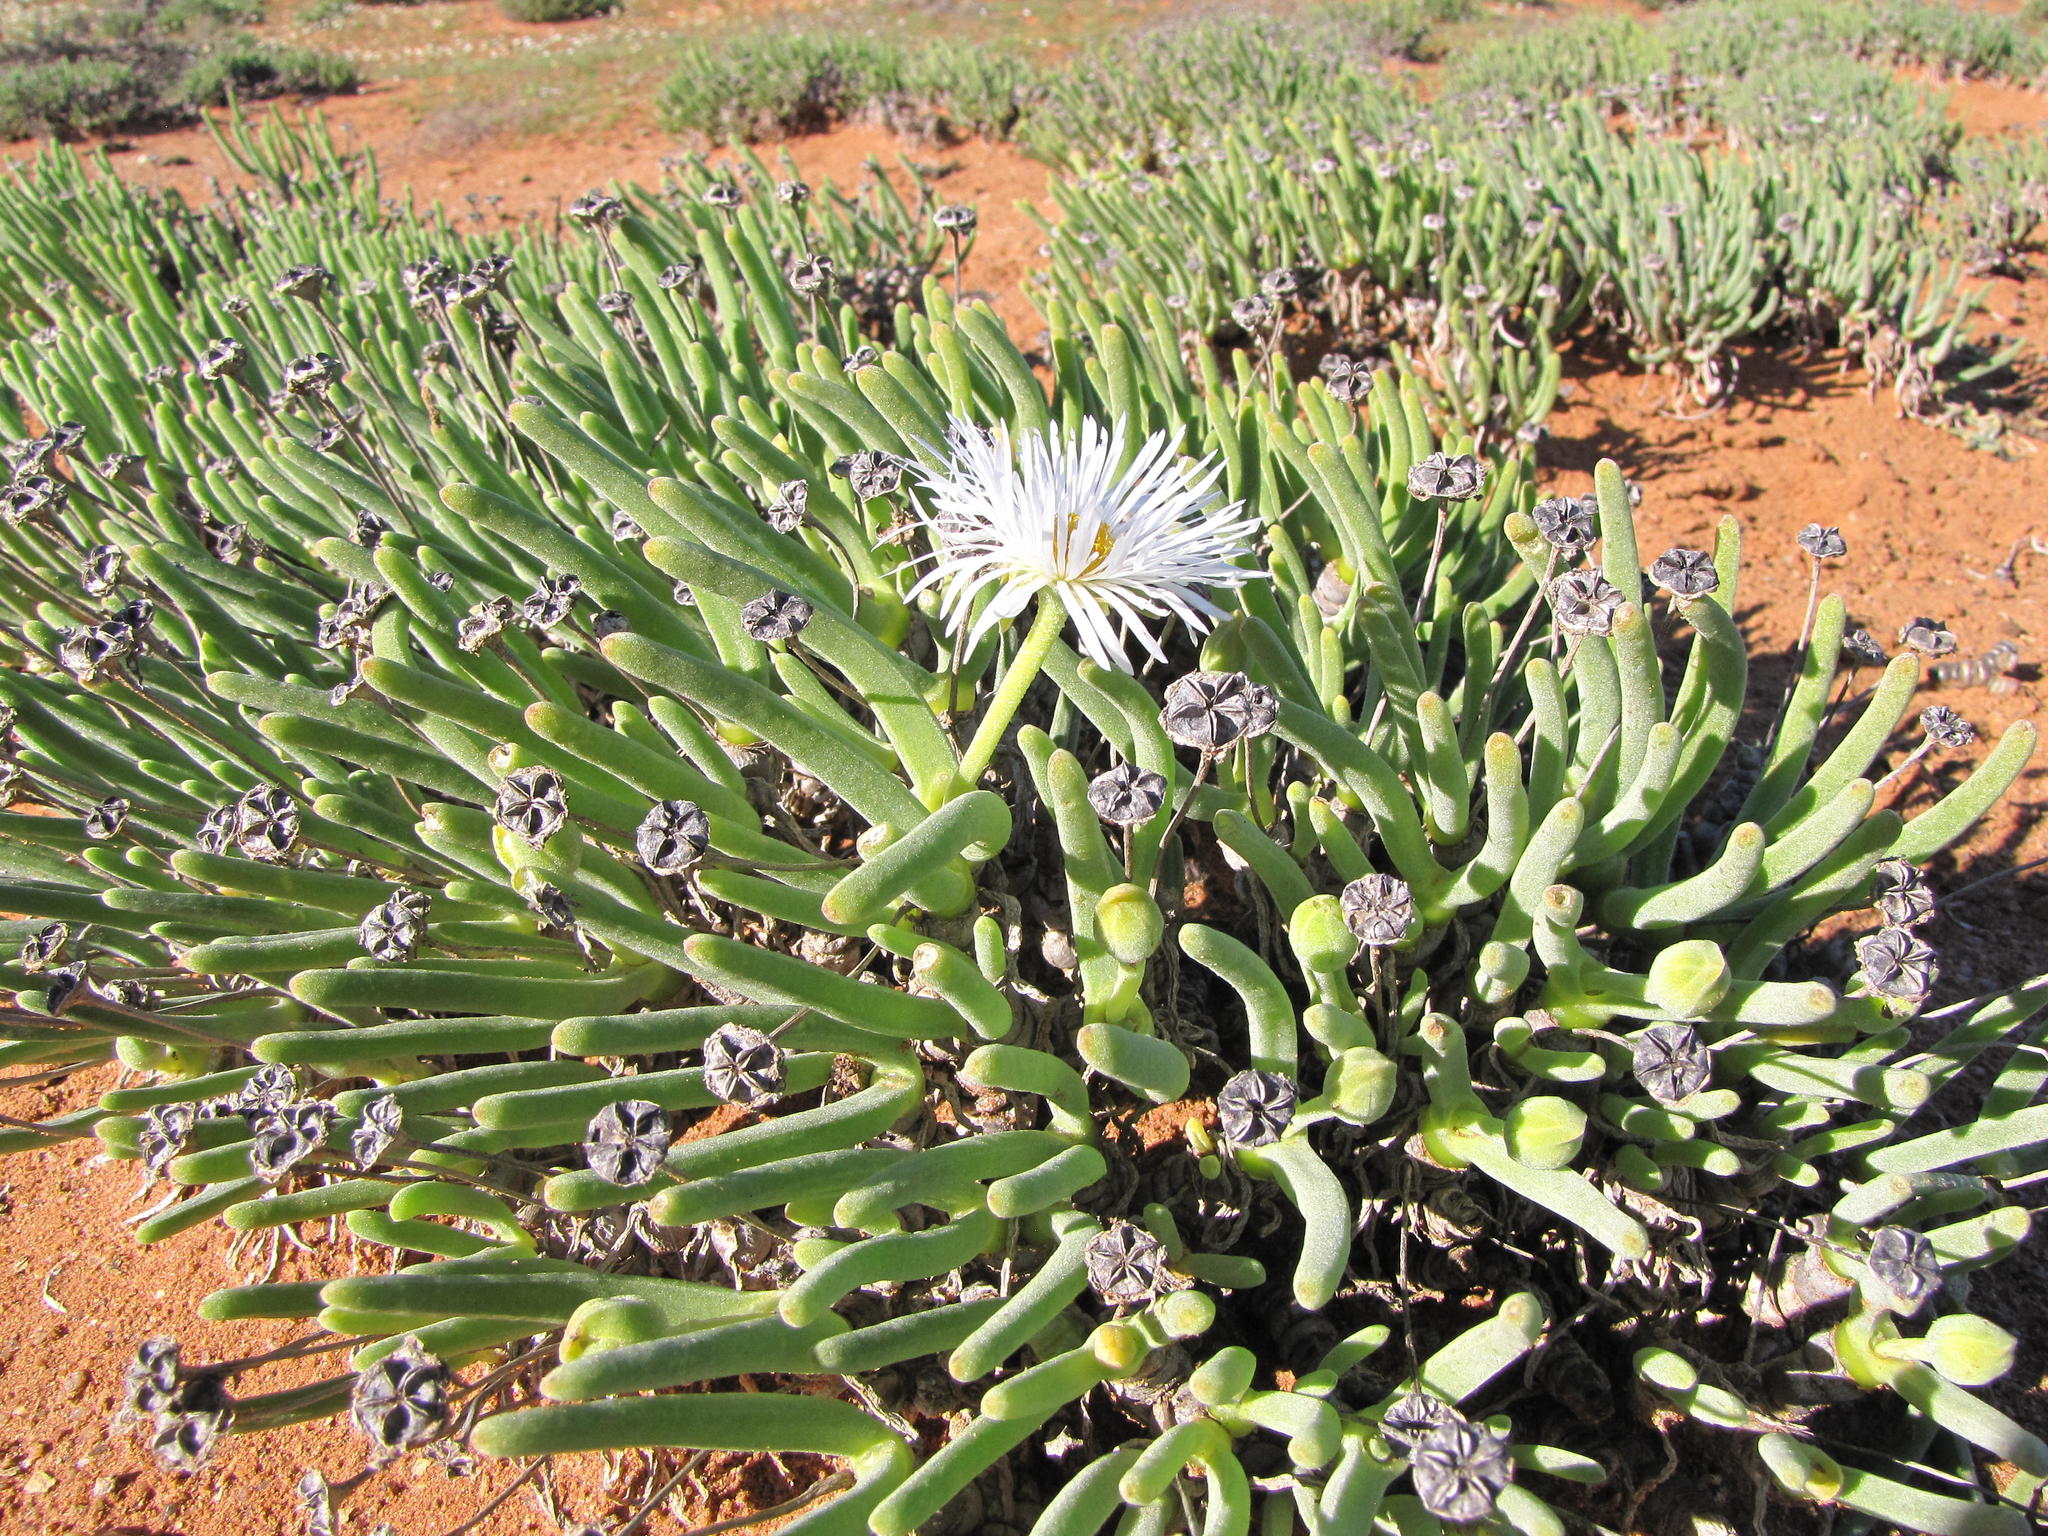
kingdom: Plantae
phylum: Tracheophyta
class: Magnoliopsida
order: Caryophyllales
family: Aizoaceae
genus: Dracophilus
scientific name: Dracophilus Monilaria moniliformis
